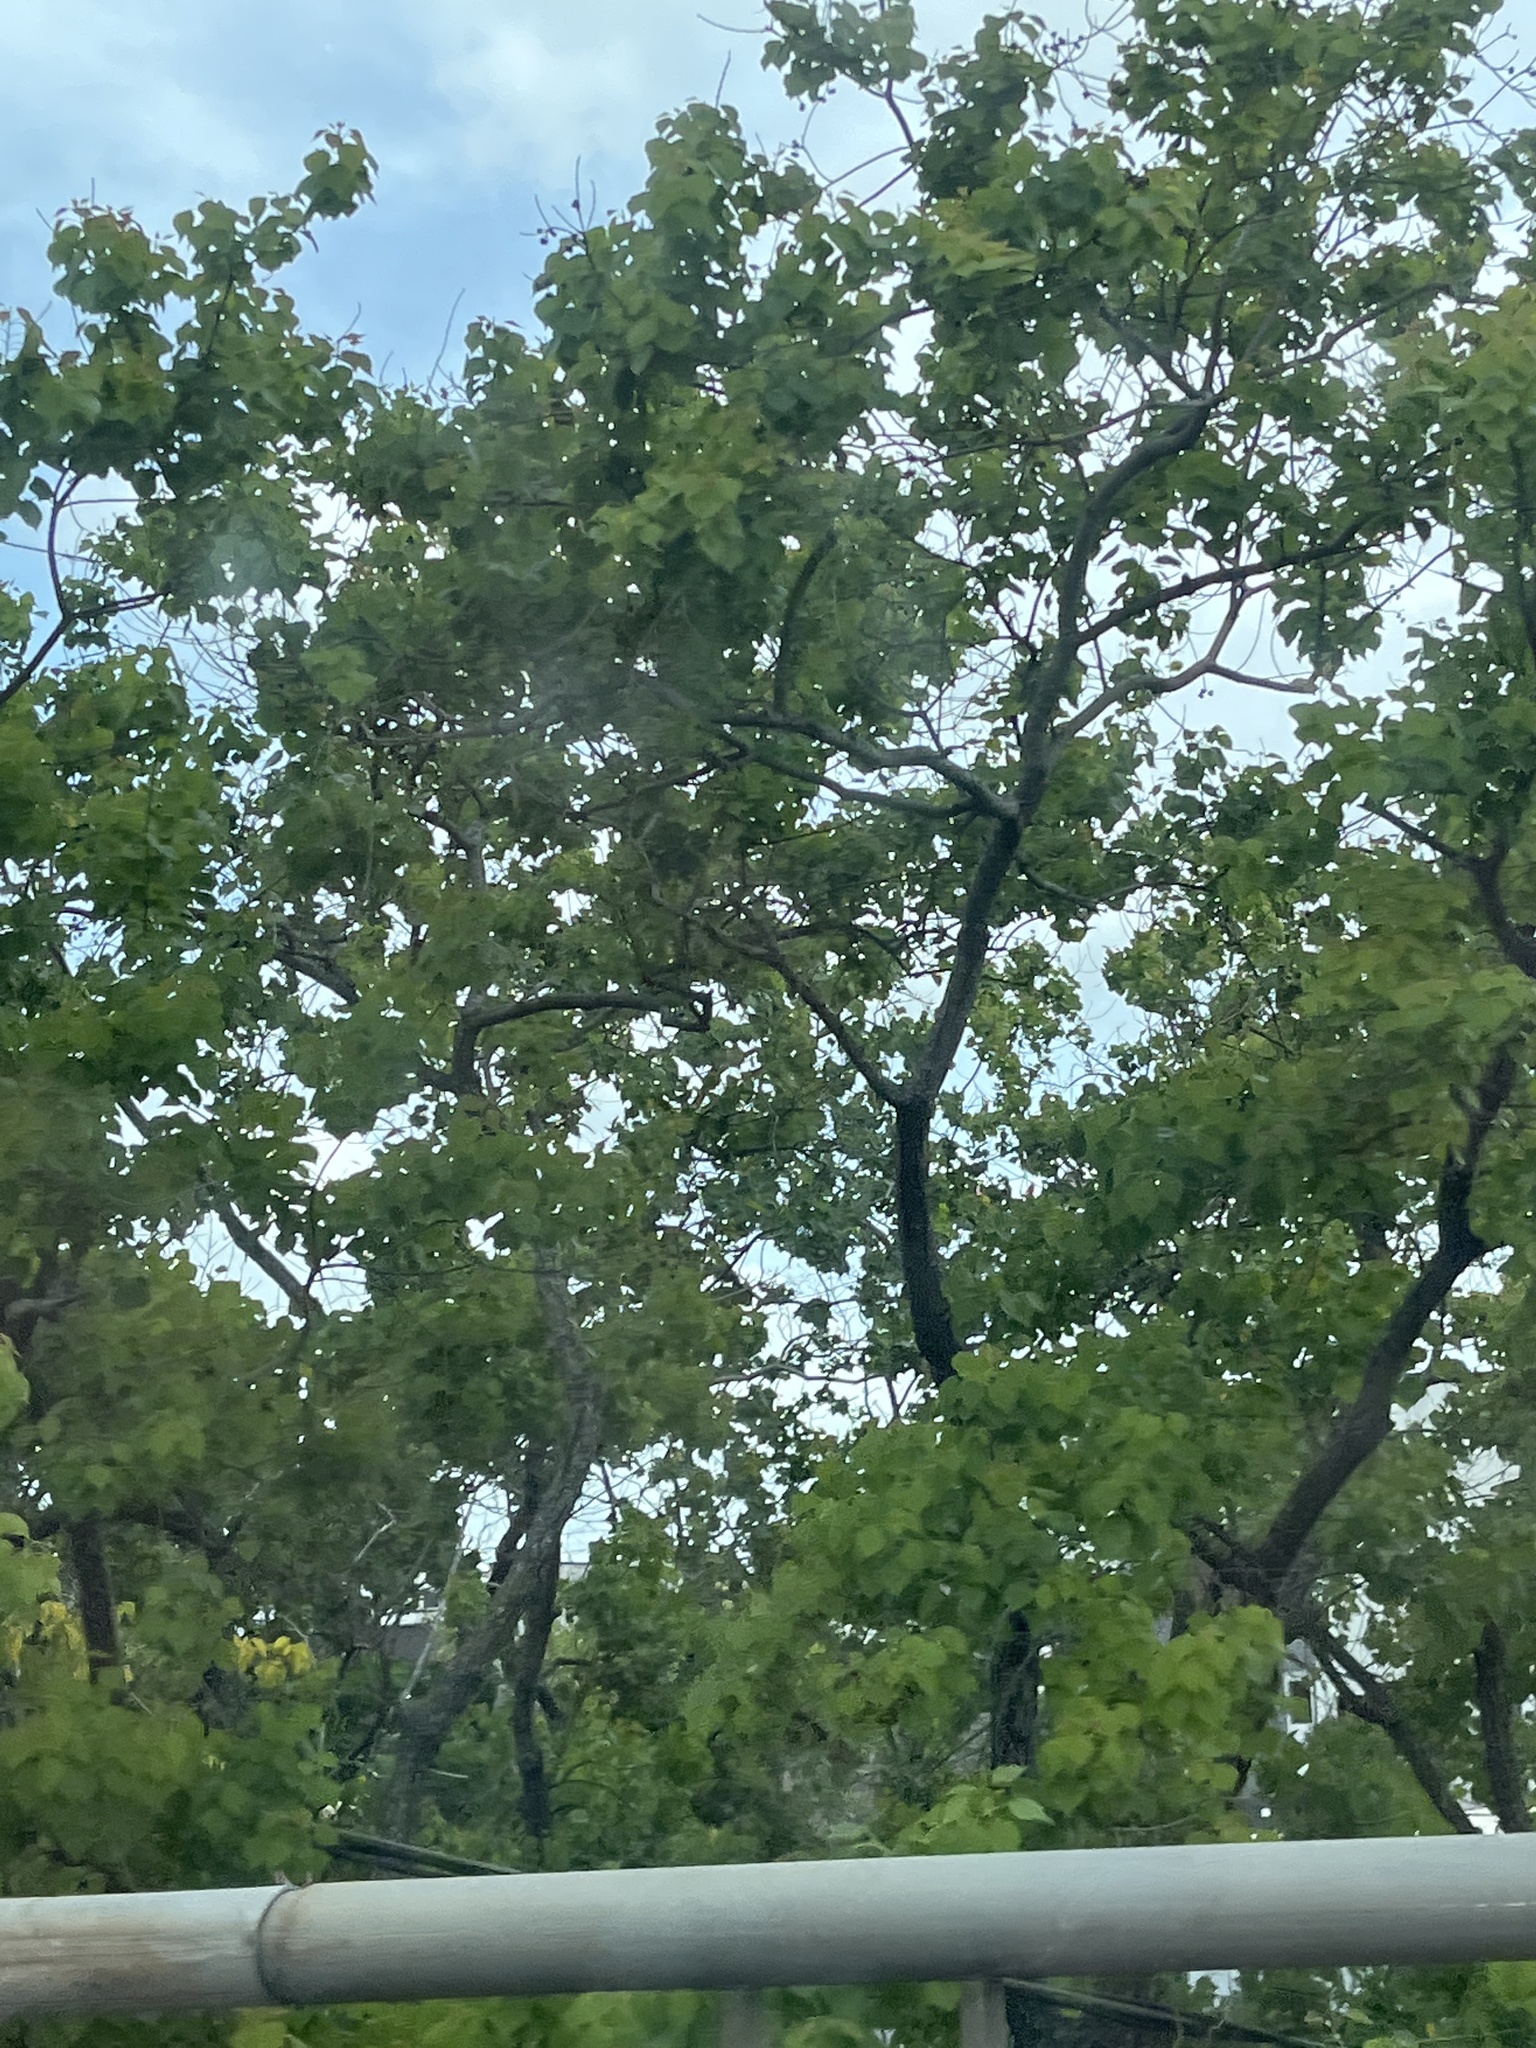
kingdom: Plantae
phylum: Tracheophyta
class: Magnoliopsida
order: Malpighiales
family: Euphorbiaceae
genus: Triadica
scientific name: Triadica sebifera
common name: Chinese tallow
